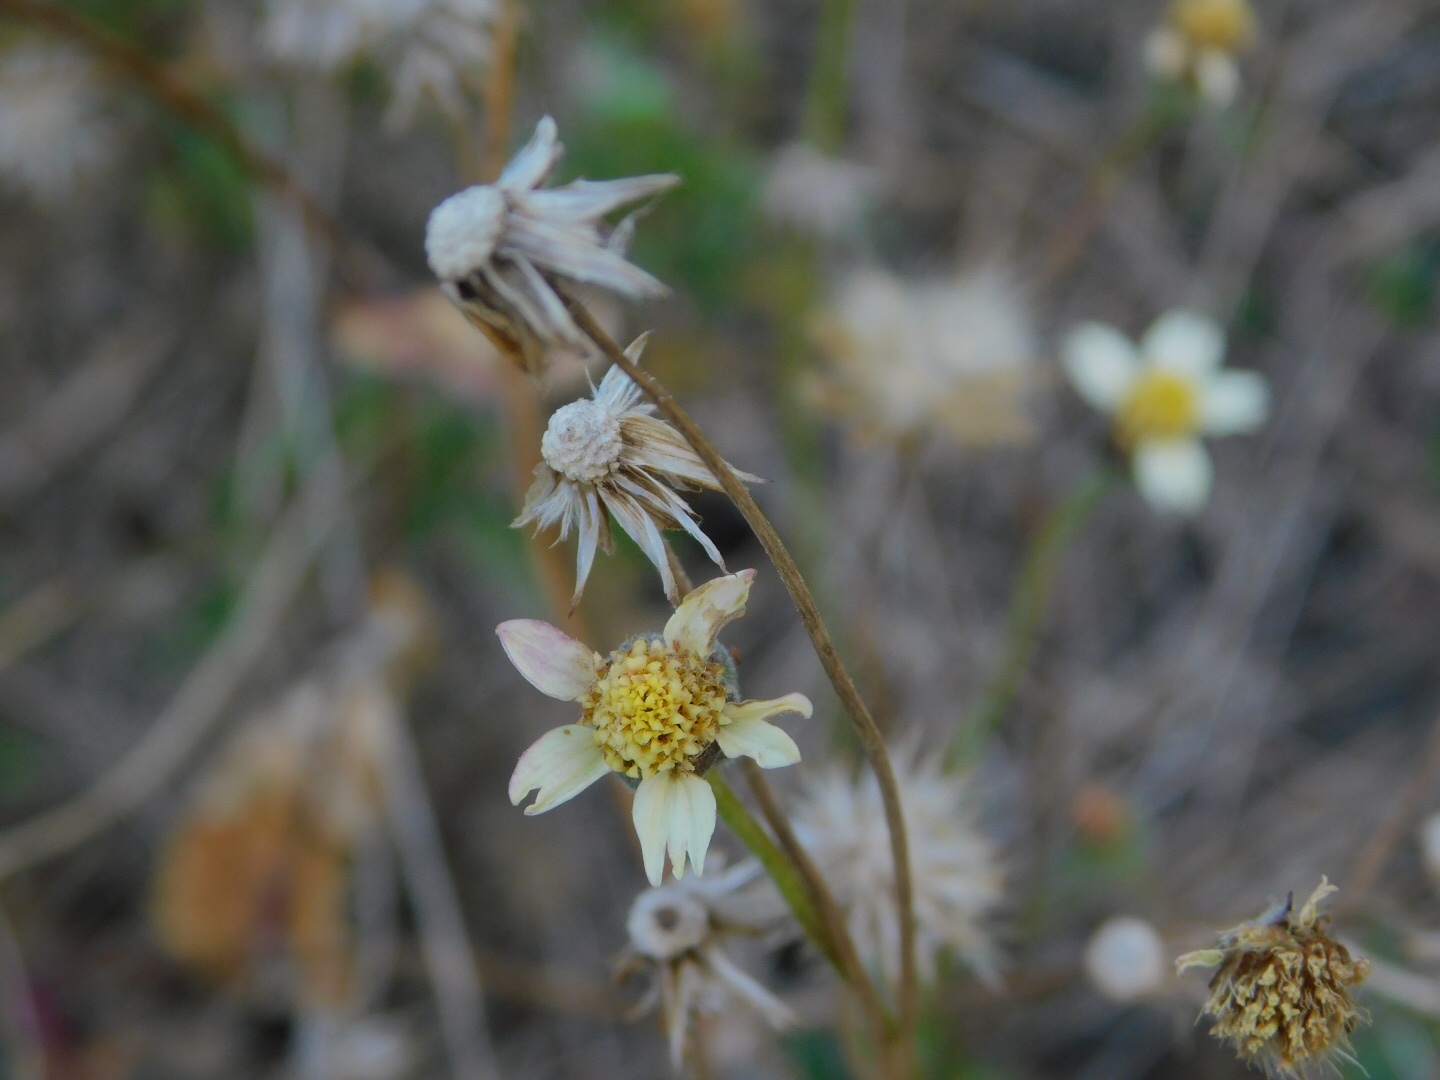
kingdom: Plantae
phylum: Tracheophyta
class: Magnoliopsida
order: Asterales
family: Asteraceae
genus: Tridax
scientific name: Tridax procumbens
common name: Coatbuttons
